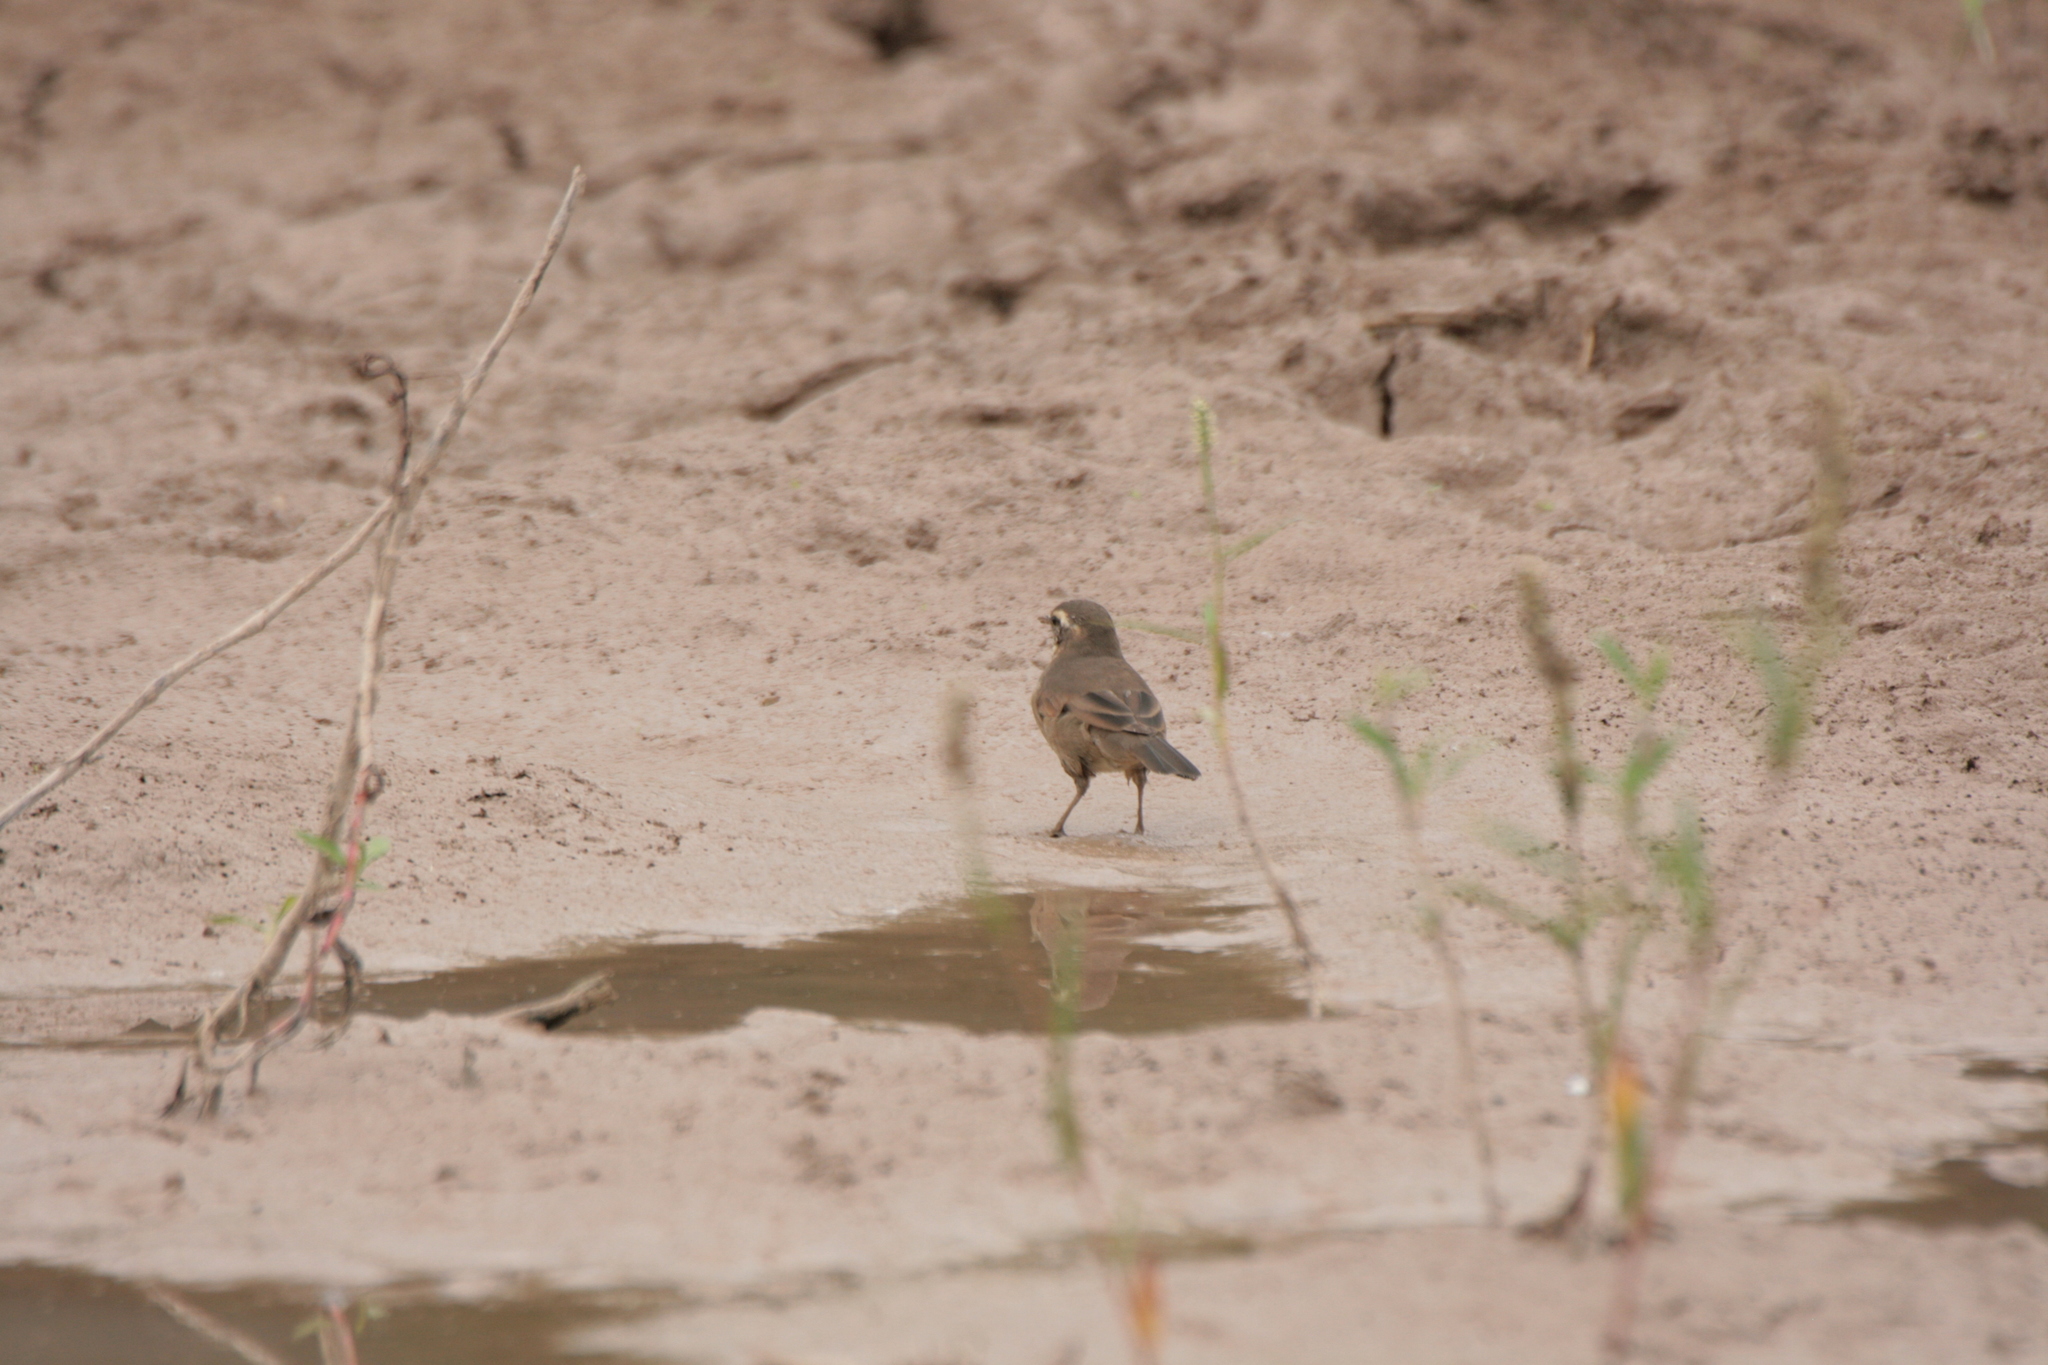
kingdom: Animalia
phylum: Chordata
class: Aves
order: Passeriformes
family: Furnariidae
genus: Cinclodes
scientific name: Cinclodes comechingonus
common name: Cordoba cinclodes
